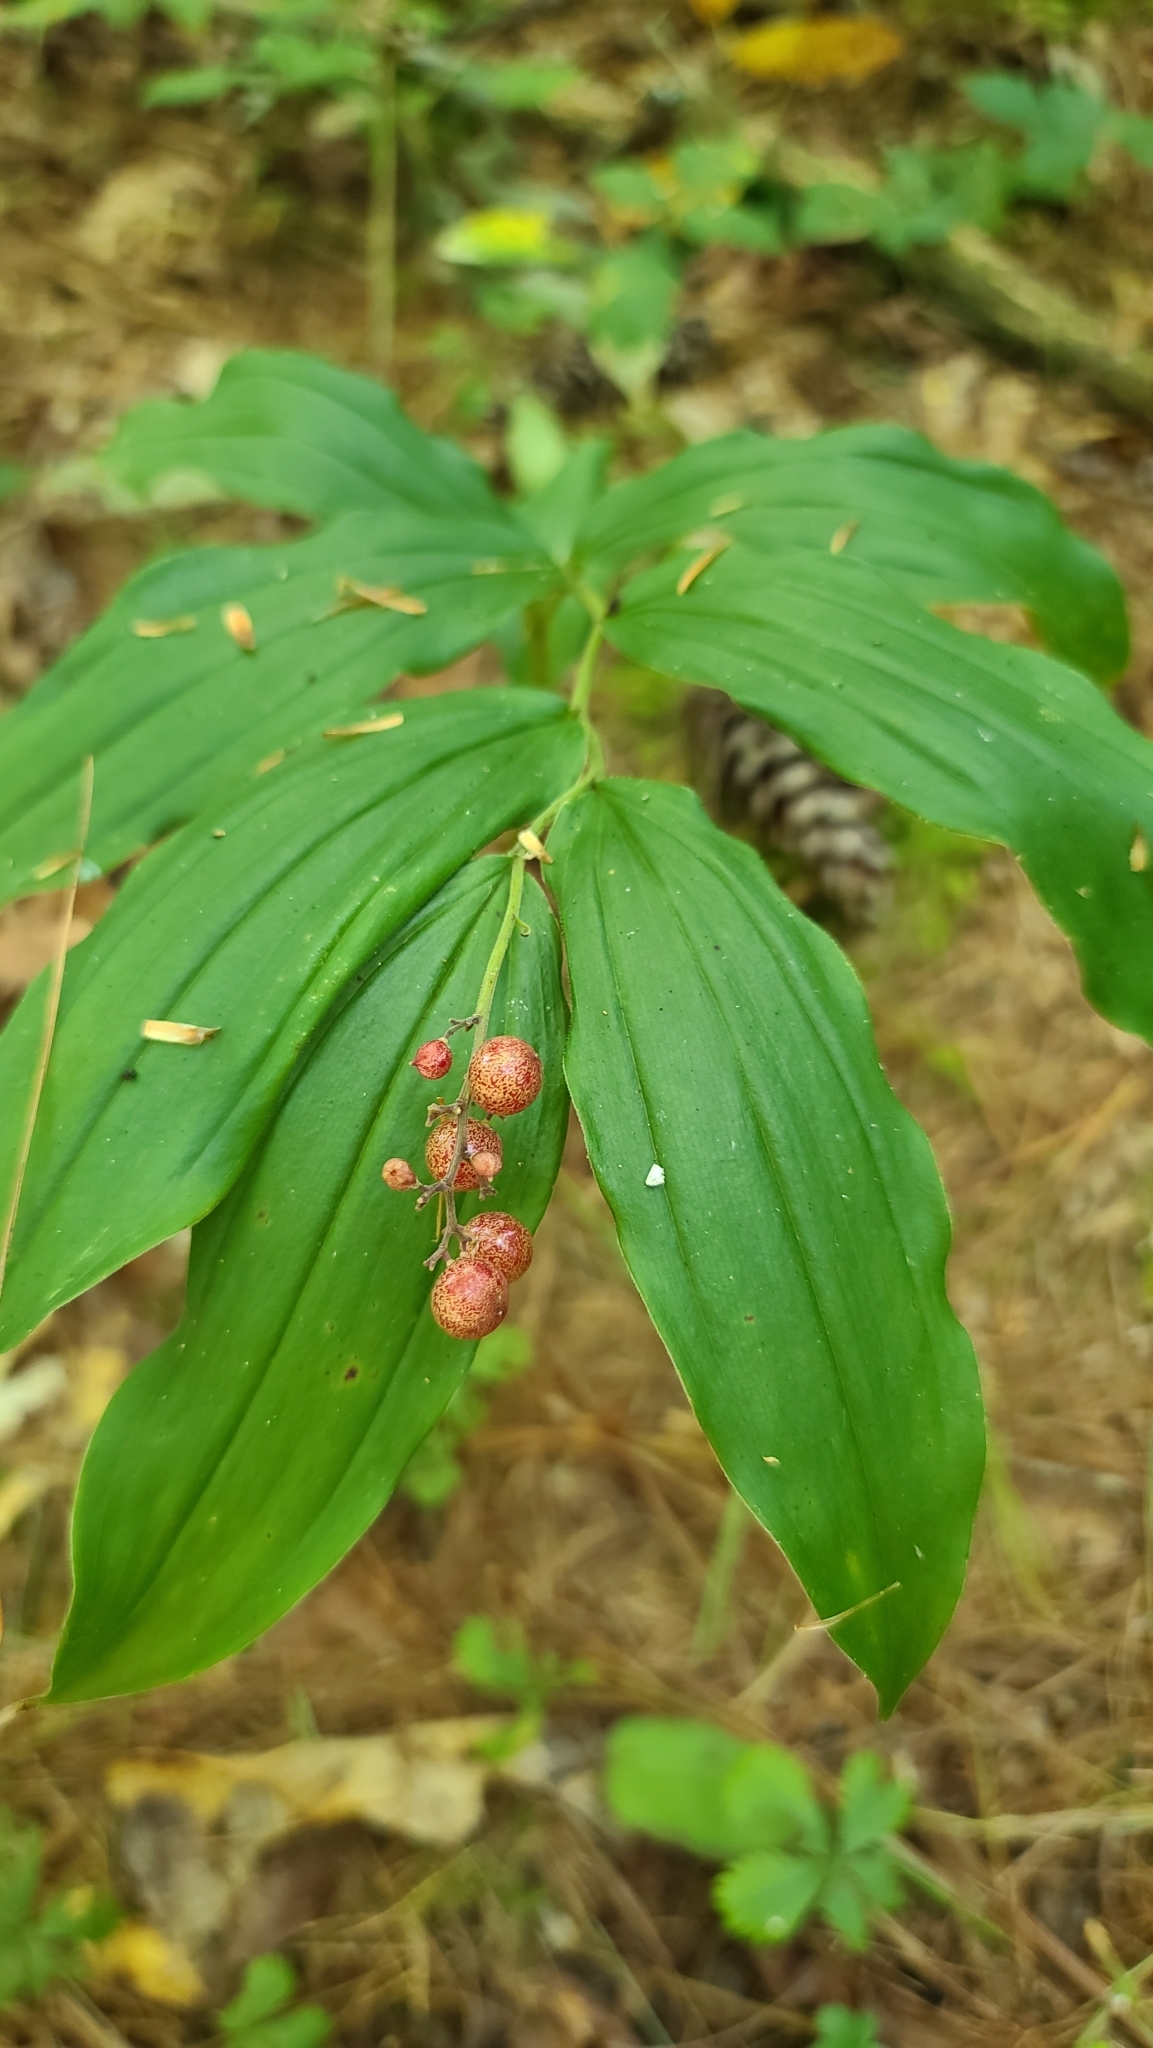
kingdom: Plantae
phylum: Tracheophyta
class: Liliopsida
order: Asparagales
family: Asparagaceae
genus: Maianthemum
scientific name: Maianthemum racemosum
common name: False spikenard
